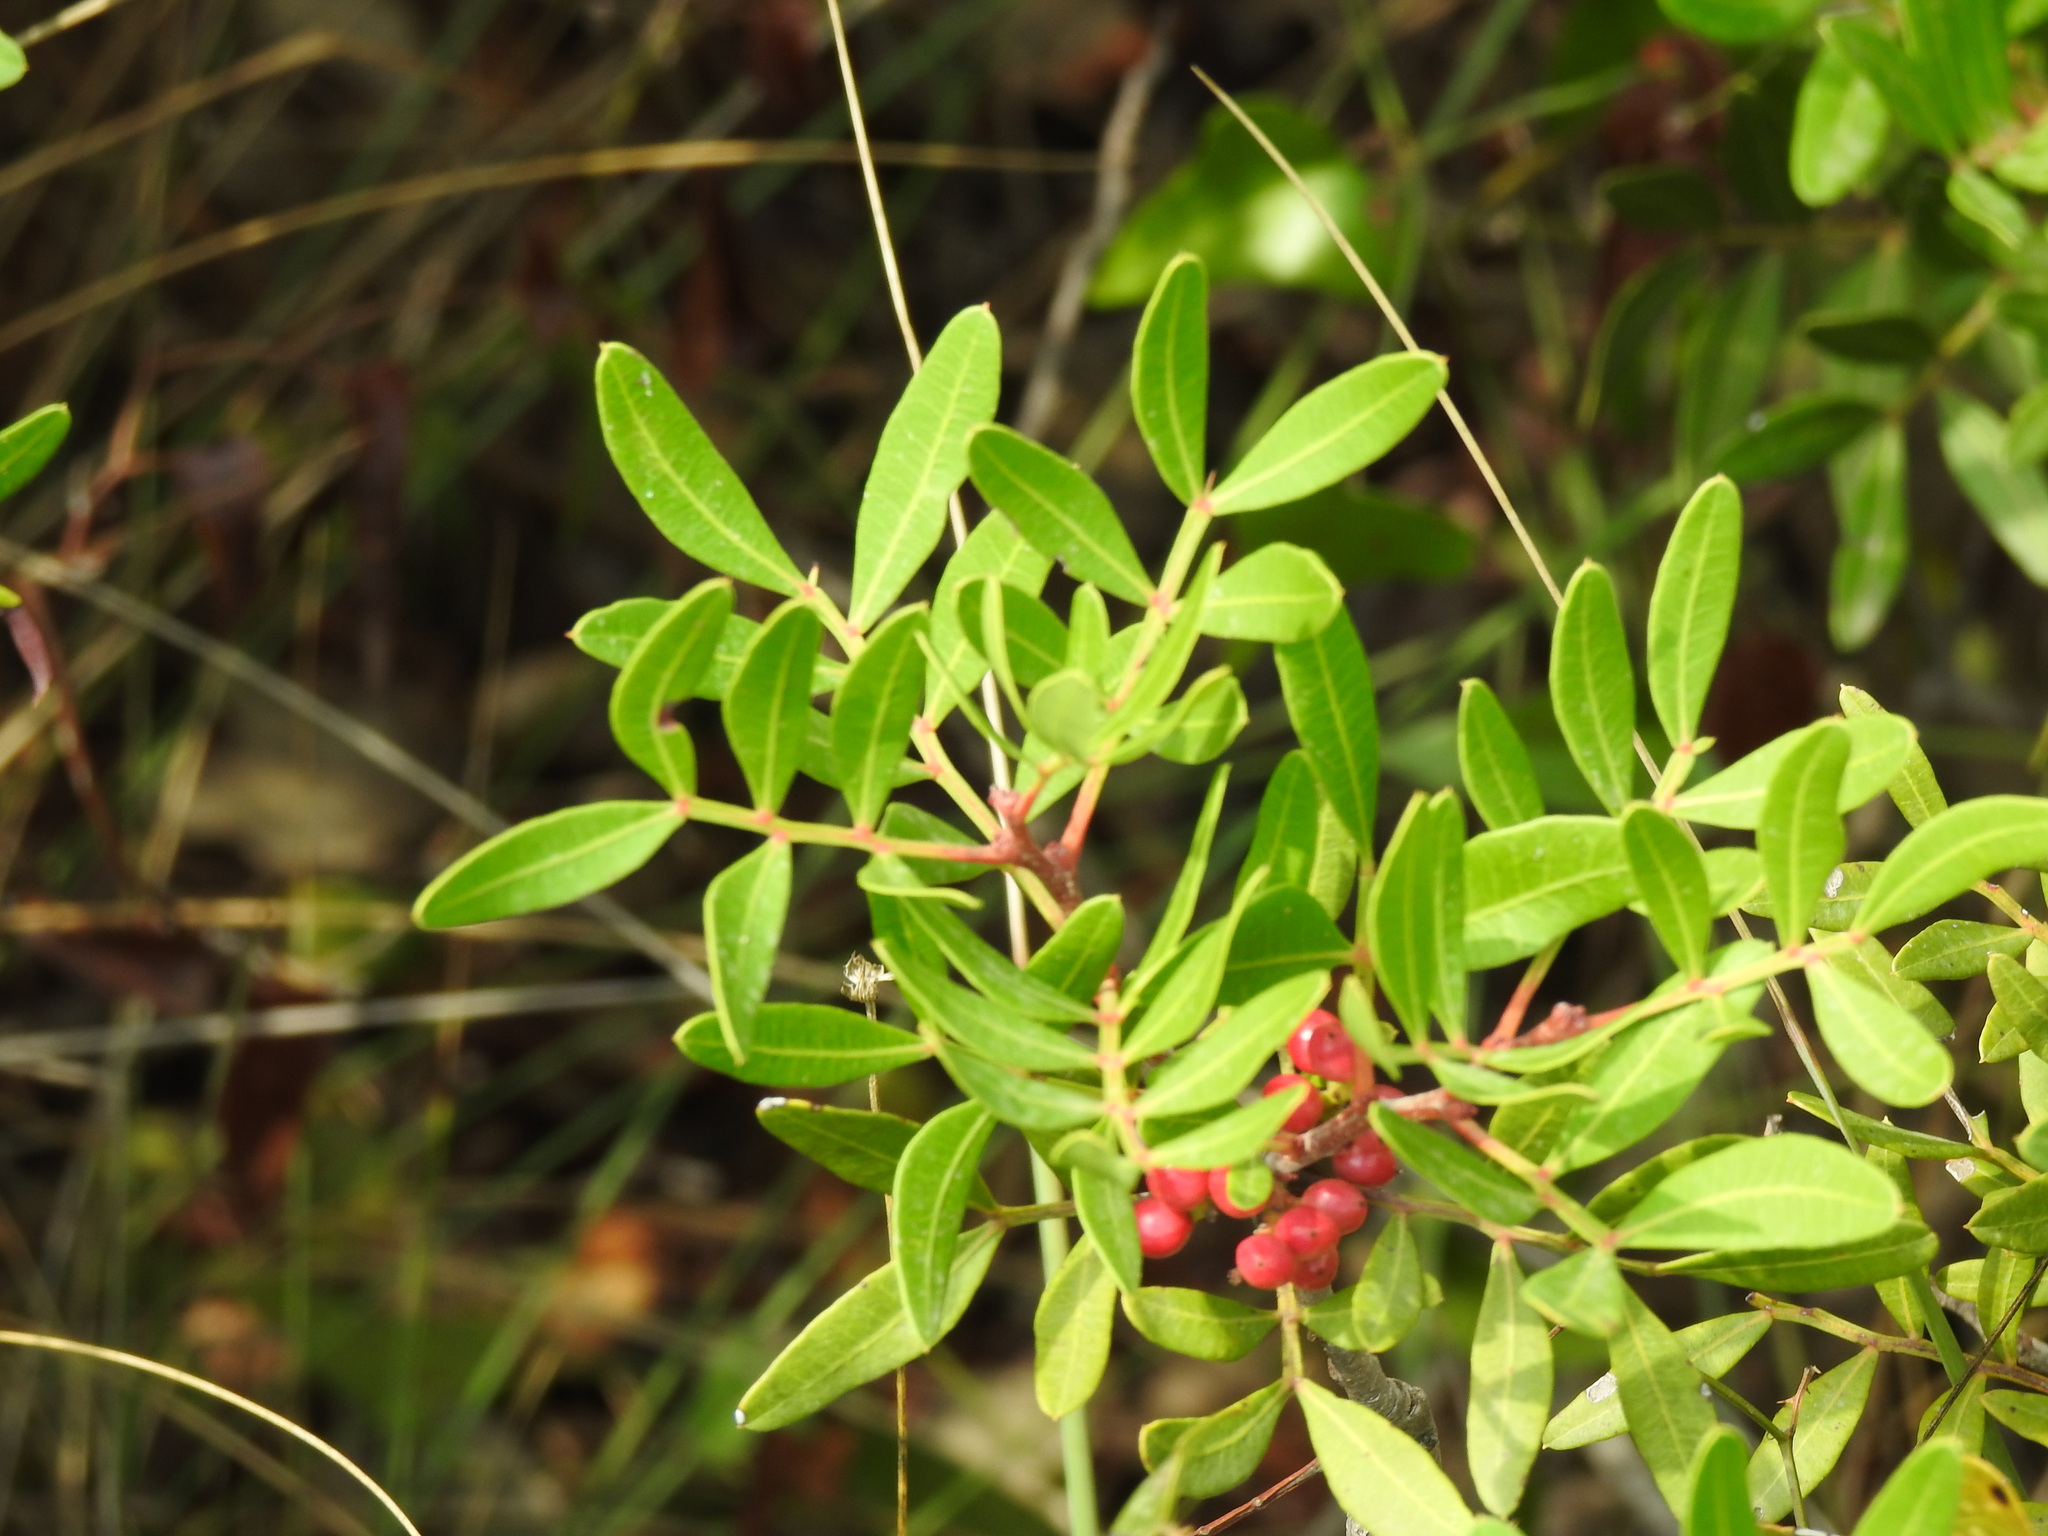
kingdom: Plantae
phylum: Tracheophyta
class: Magnoliopsida
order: Sapindales
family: Anacardiaceae
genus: Pistacia
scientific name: Pistacia lentiscus
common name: Lentisk
